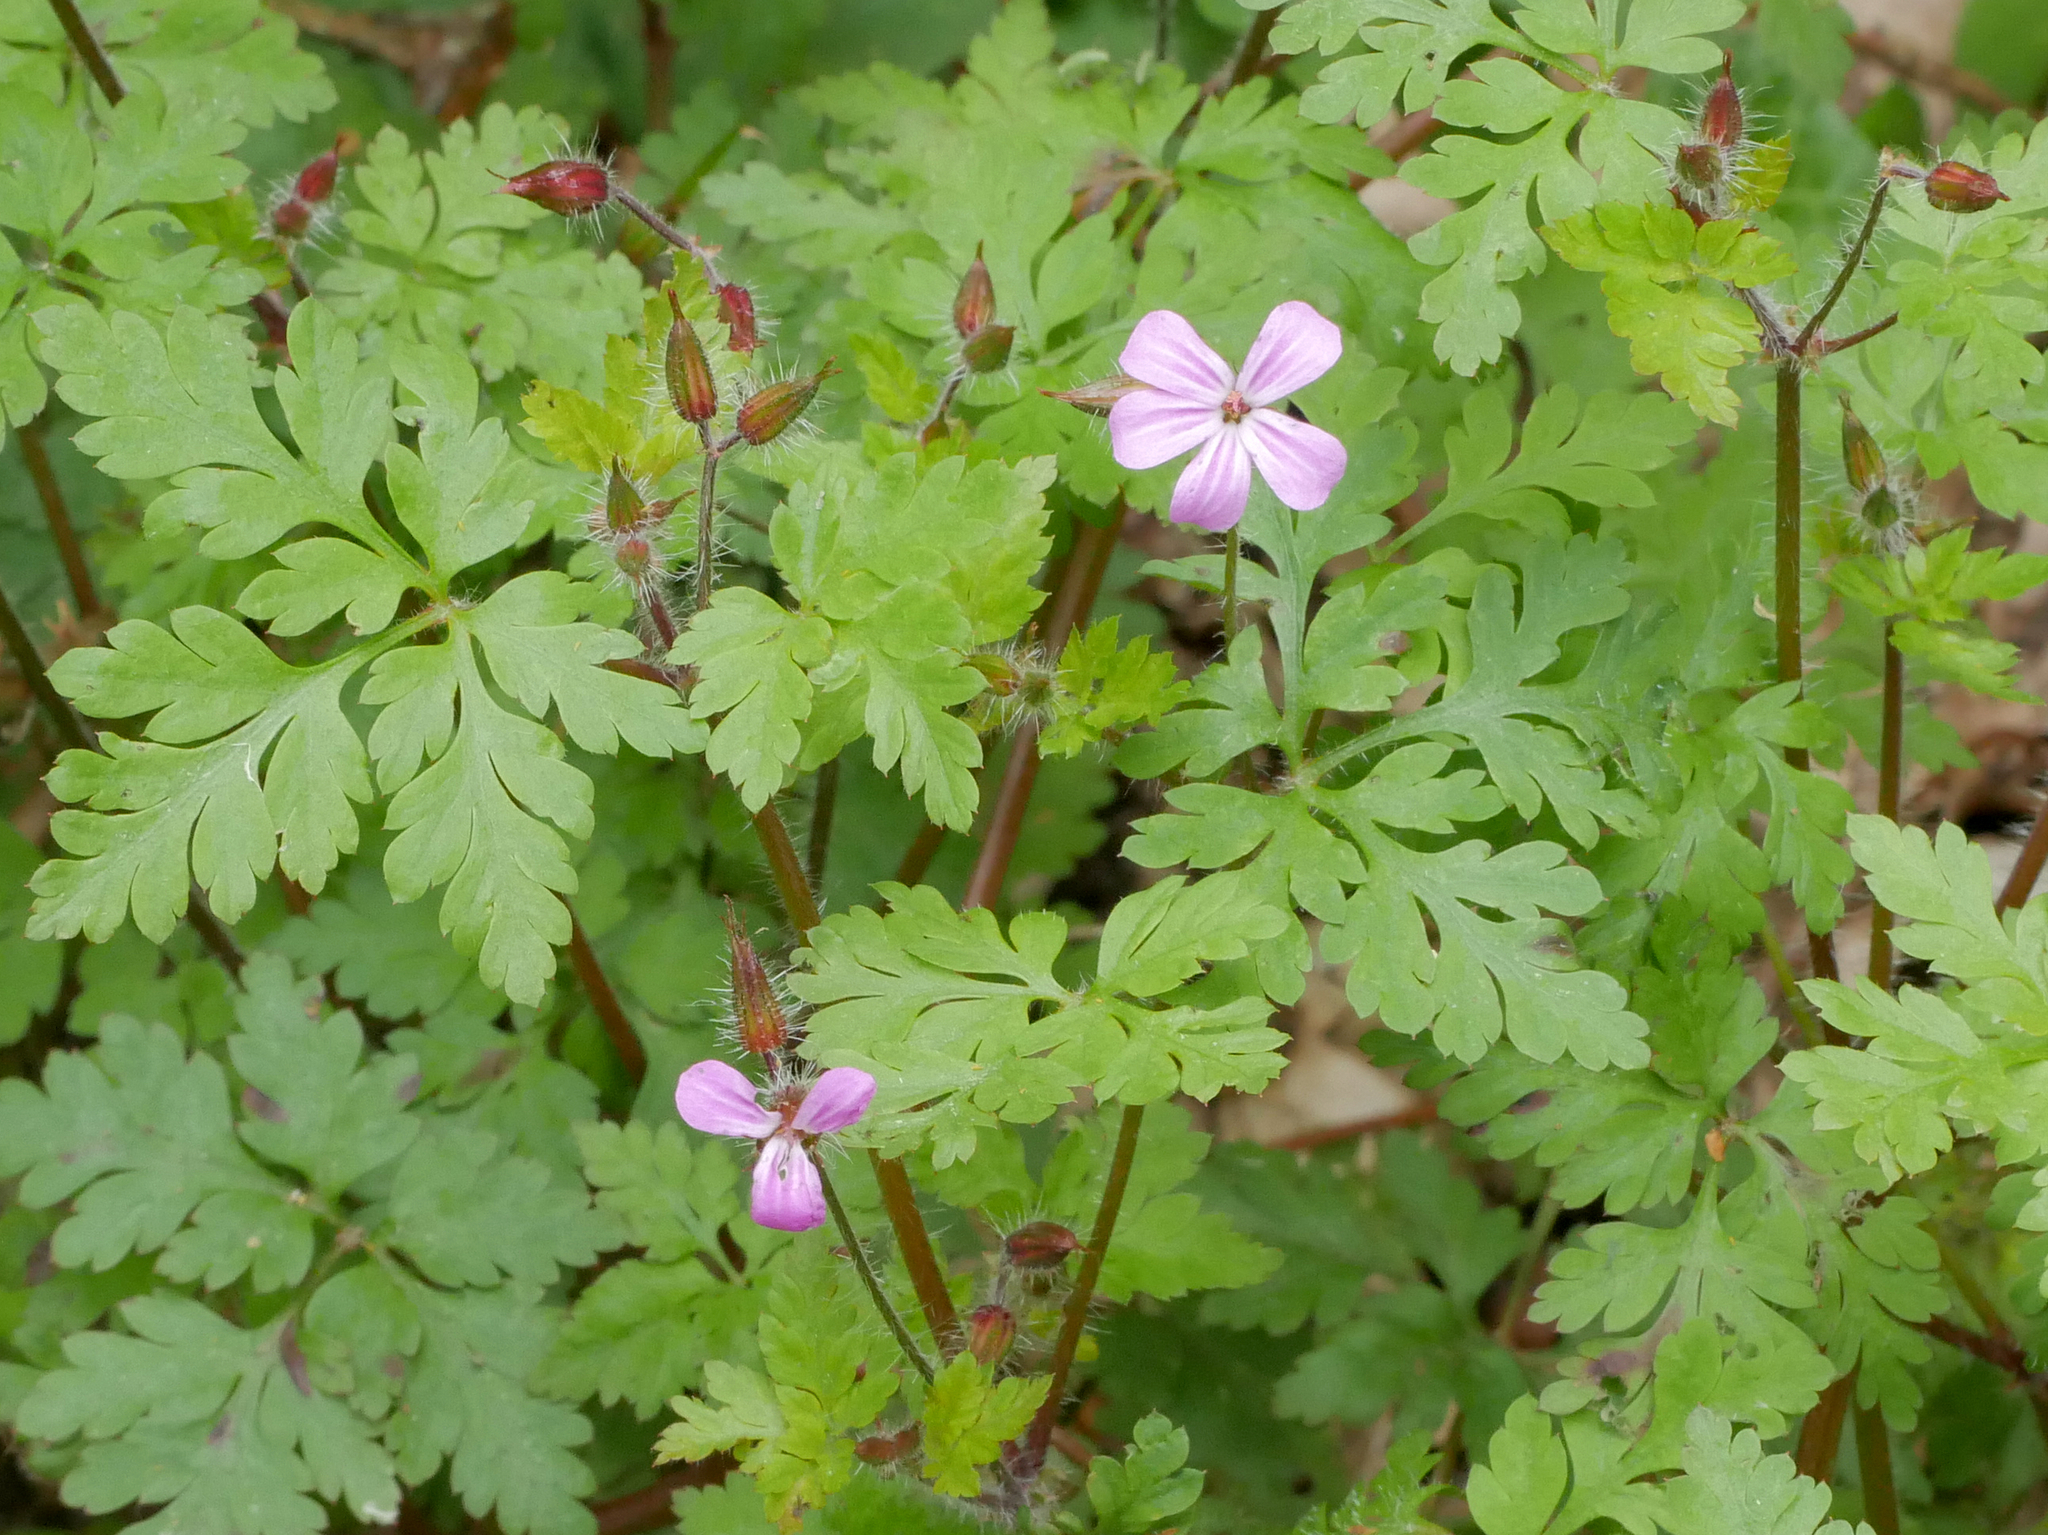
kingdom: Plantae
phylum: Tracheophyta
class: Magnoliopsida
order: Geraniales
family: Geraniaceae
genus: Geranium
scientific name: Geranium robertianum
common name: Herb-robert
